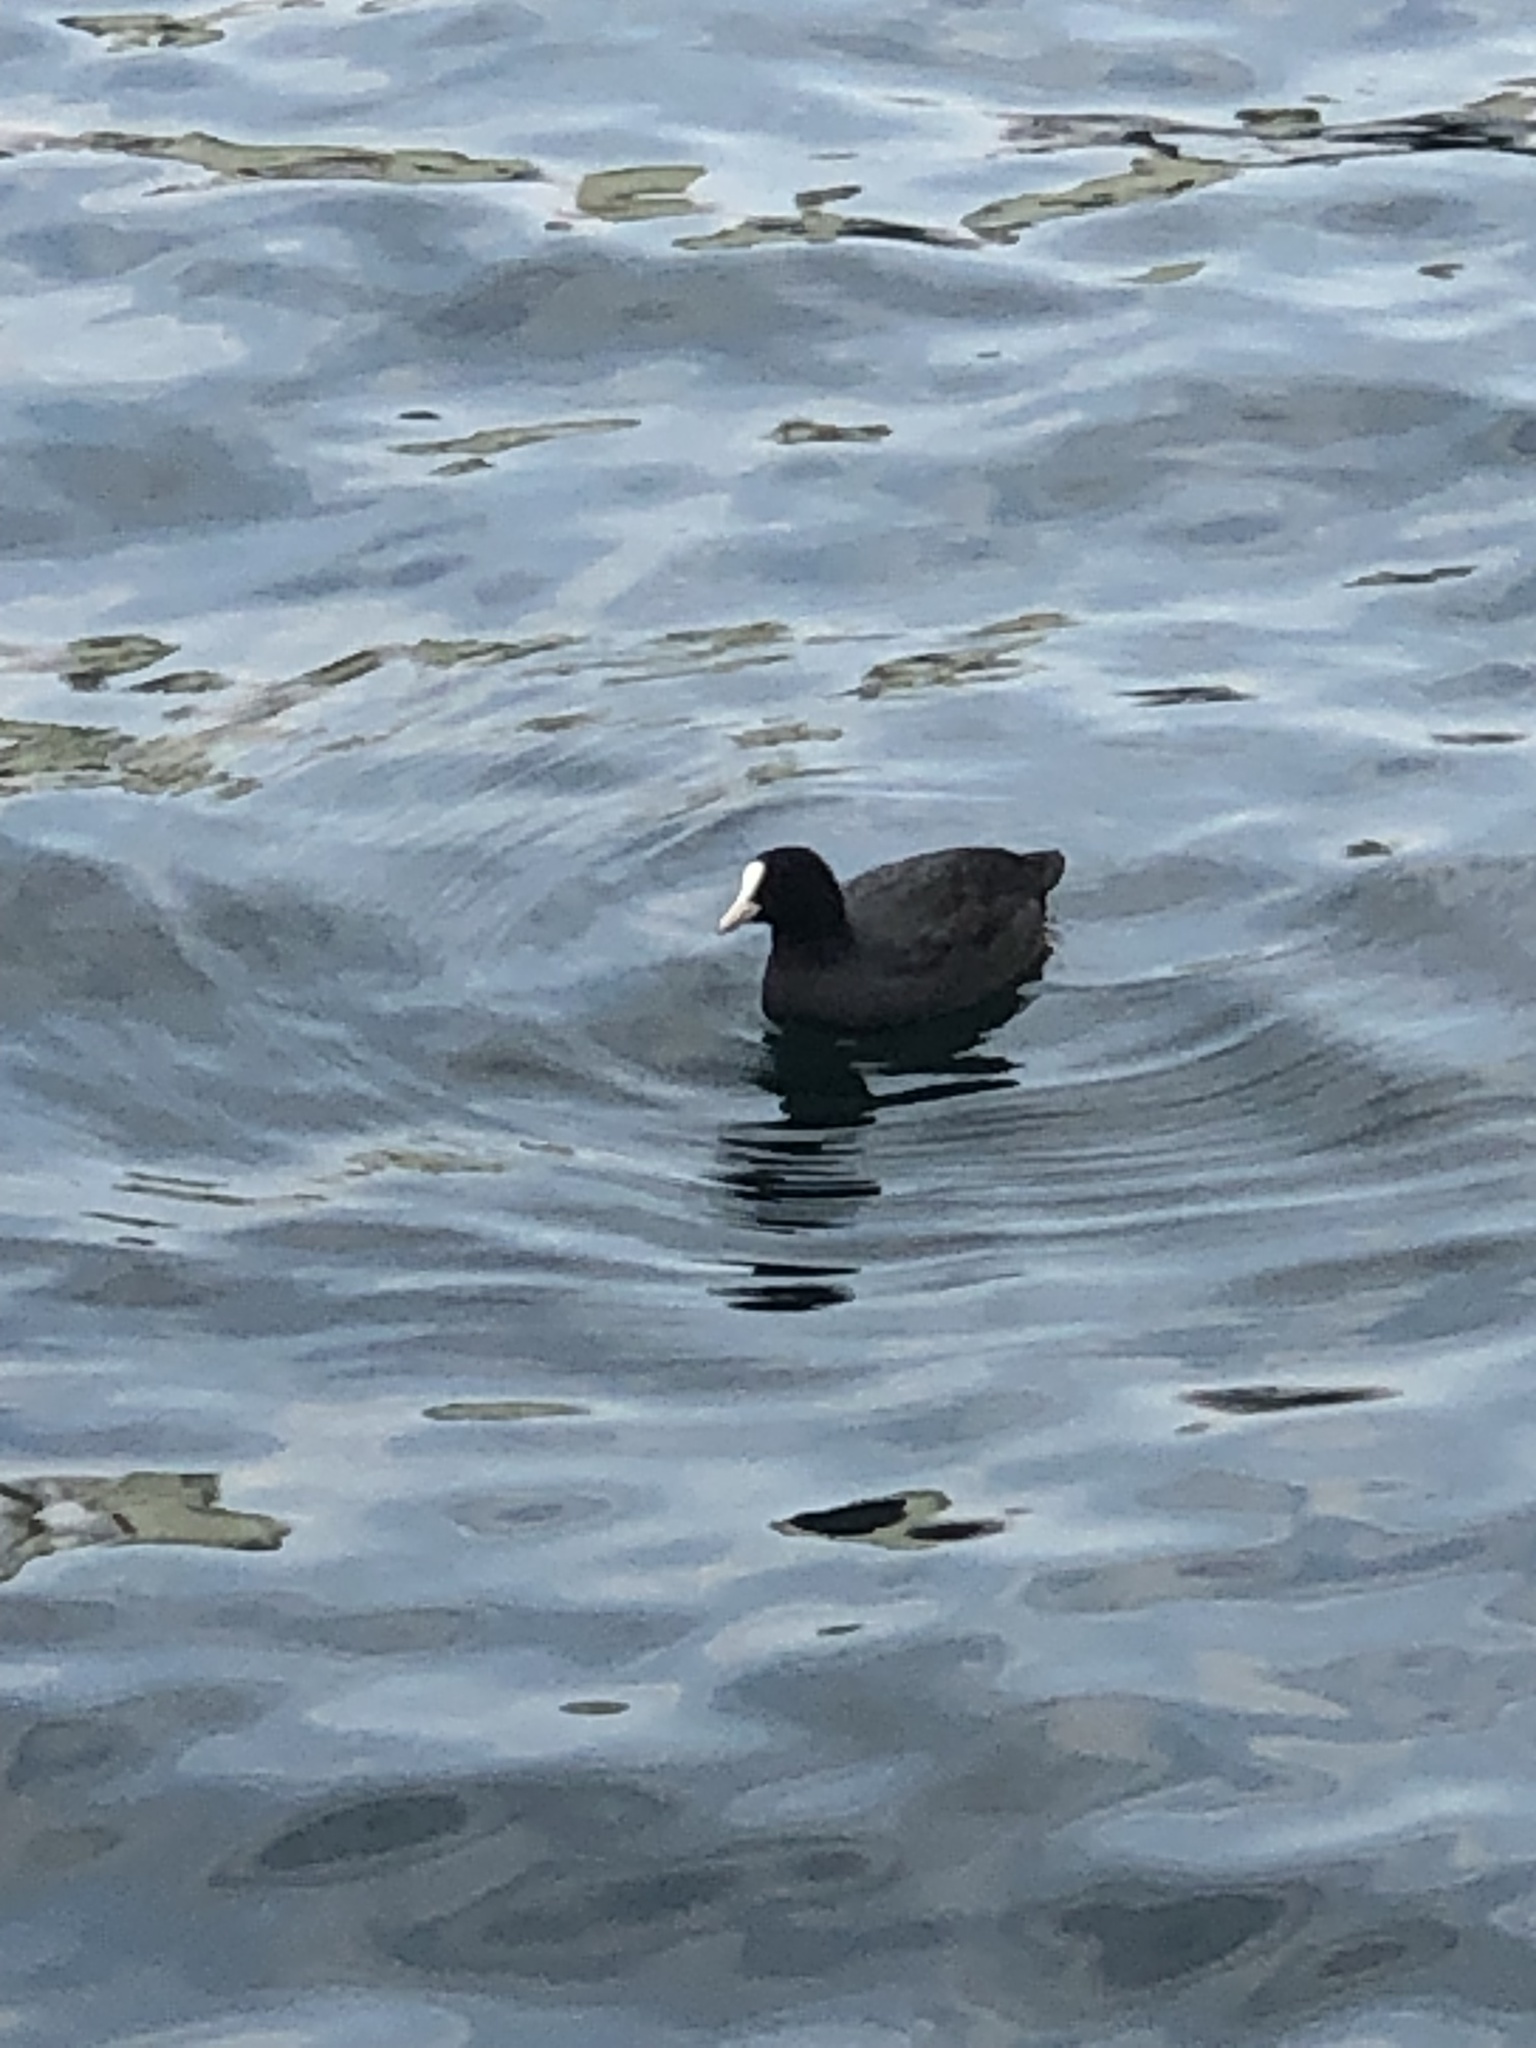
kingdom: Animalia
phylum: Chordata
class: Aves
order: Gruiformes
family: Rallidae
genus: Fulica
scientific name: Fulica atra
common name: Eurasian coot
